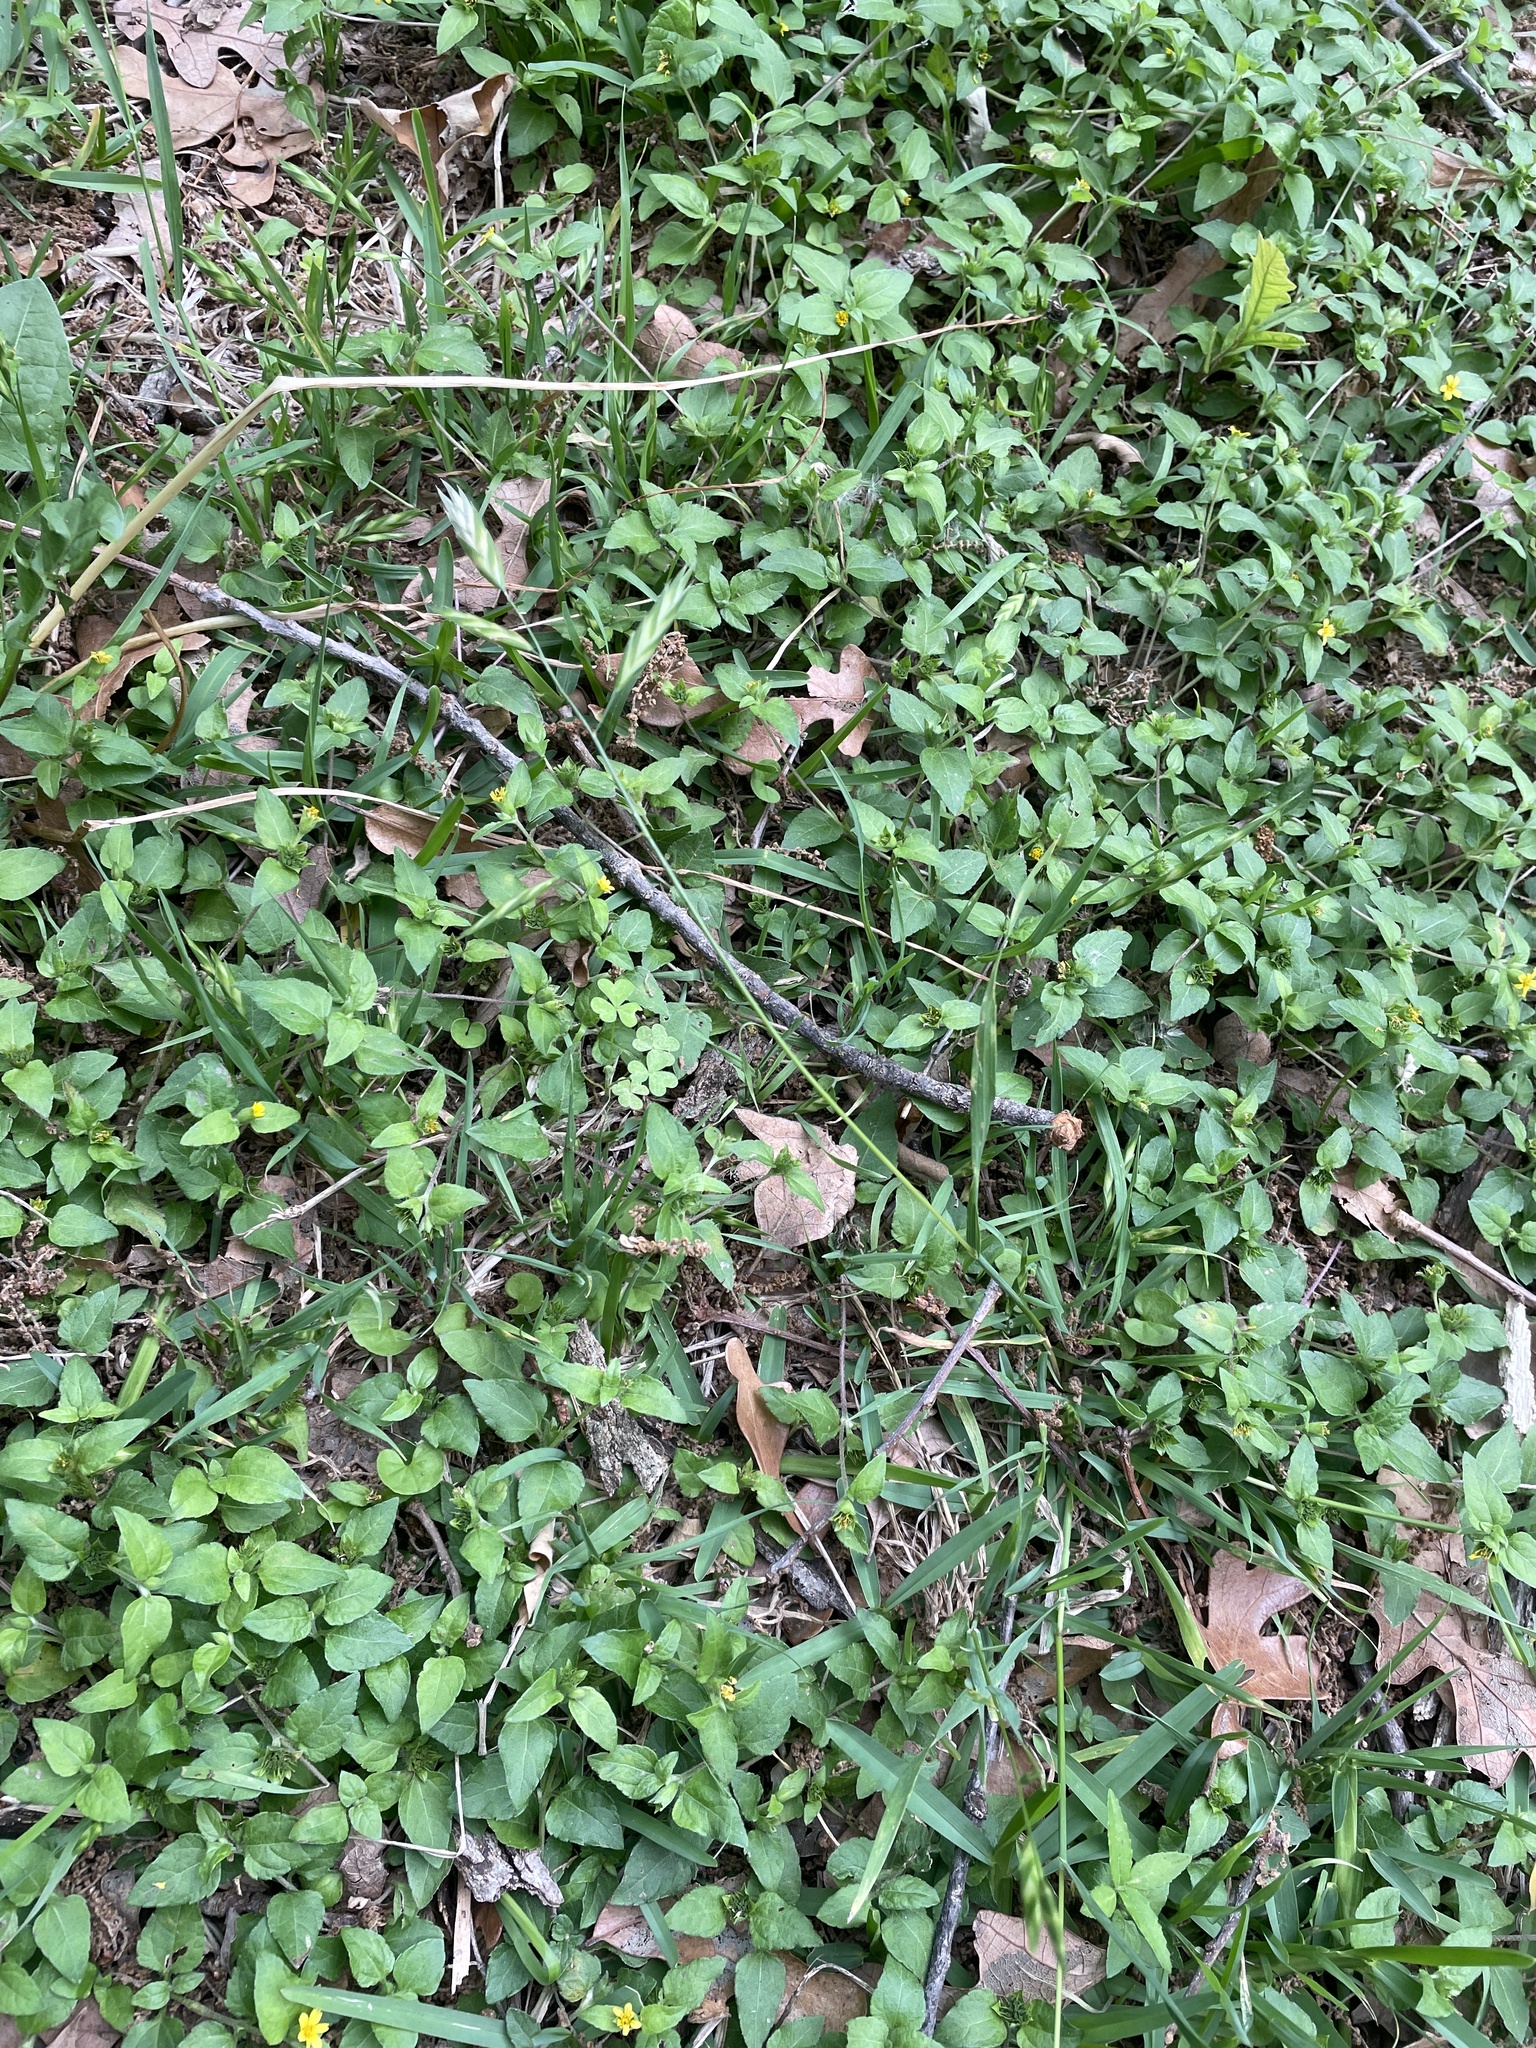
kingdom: Plantae
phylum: Tracheophyta
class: Liliopsida
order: Poales
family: Poaceae
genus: Bromus
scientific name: Bromus catharticus
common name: Rescuegrass
